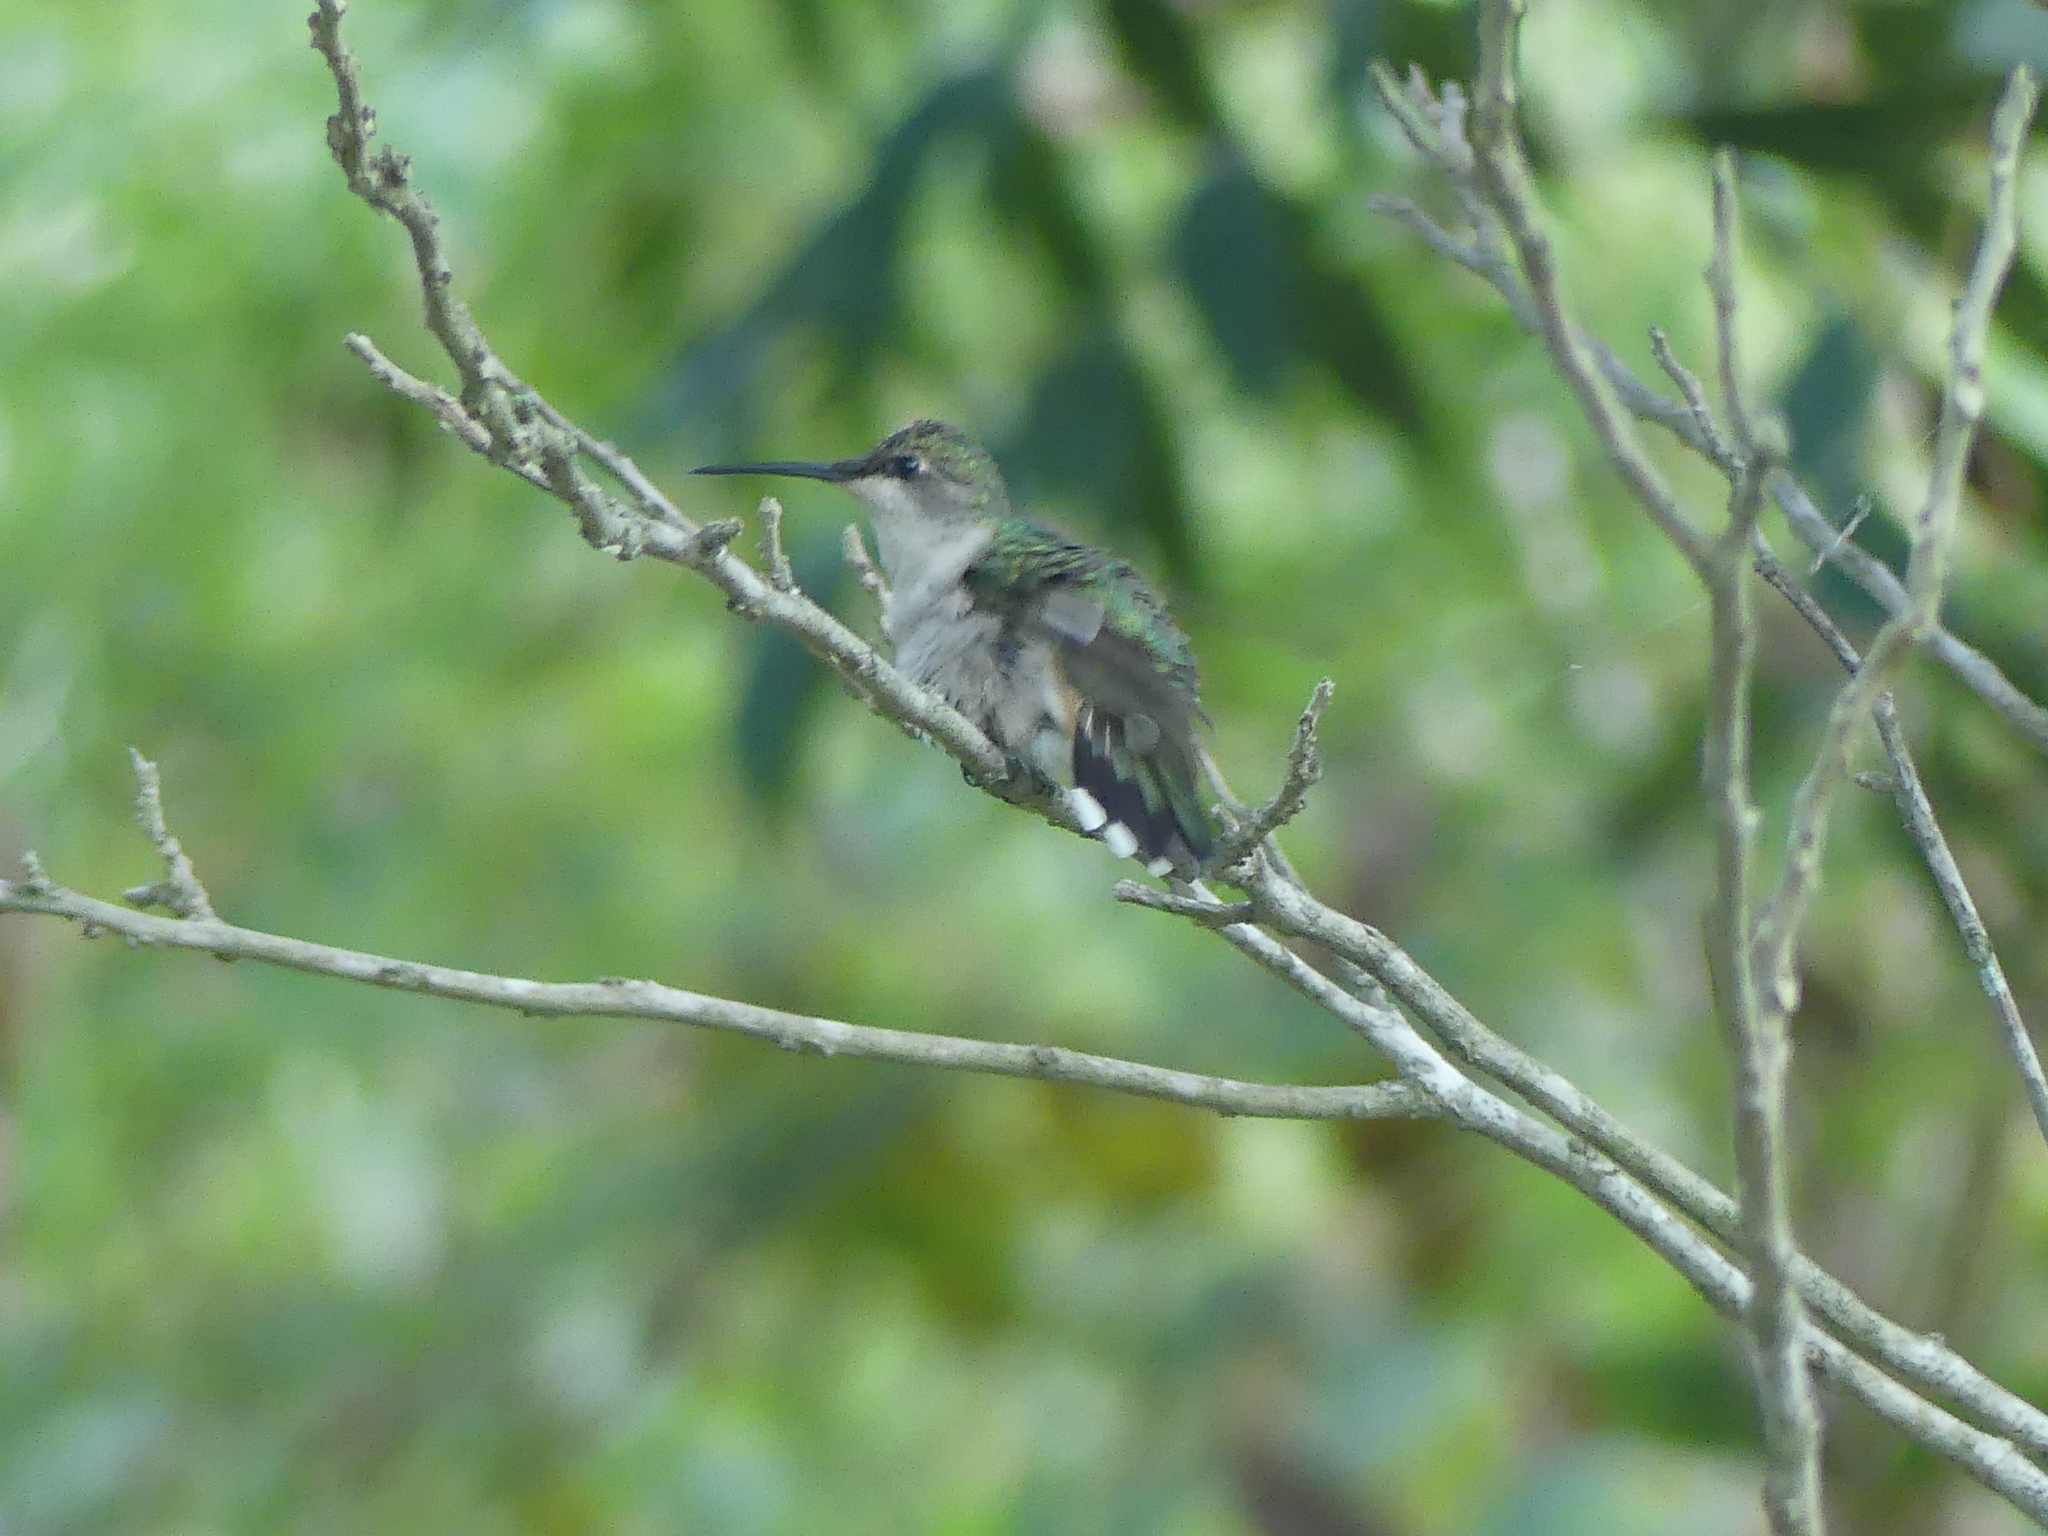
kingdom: Animalia
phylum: Chordata
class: Aves
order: Apodiformes
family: Trochilidae
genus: Archilochus
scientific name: Archilochus colubris
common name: Ruby-throated hummingbird
